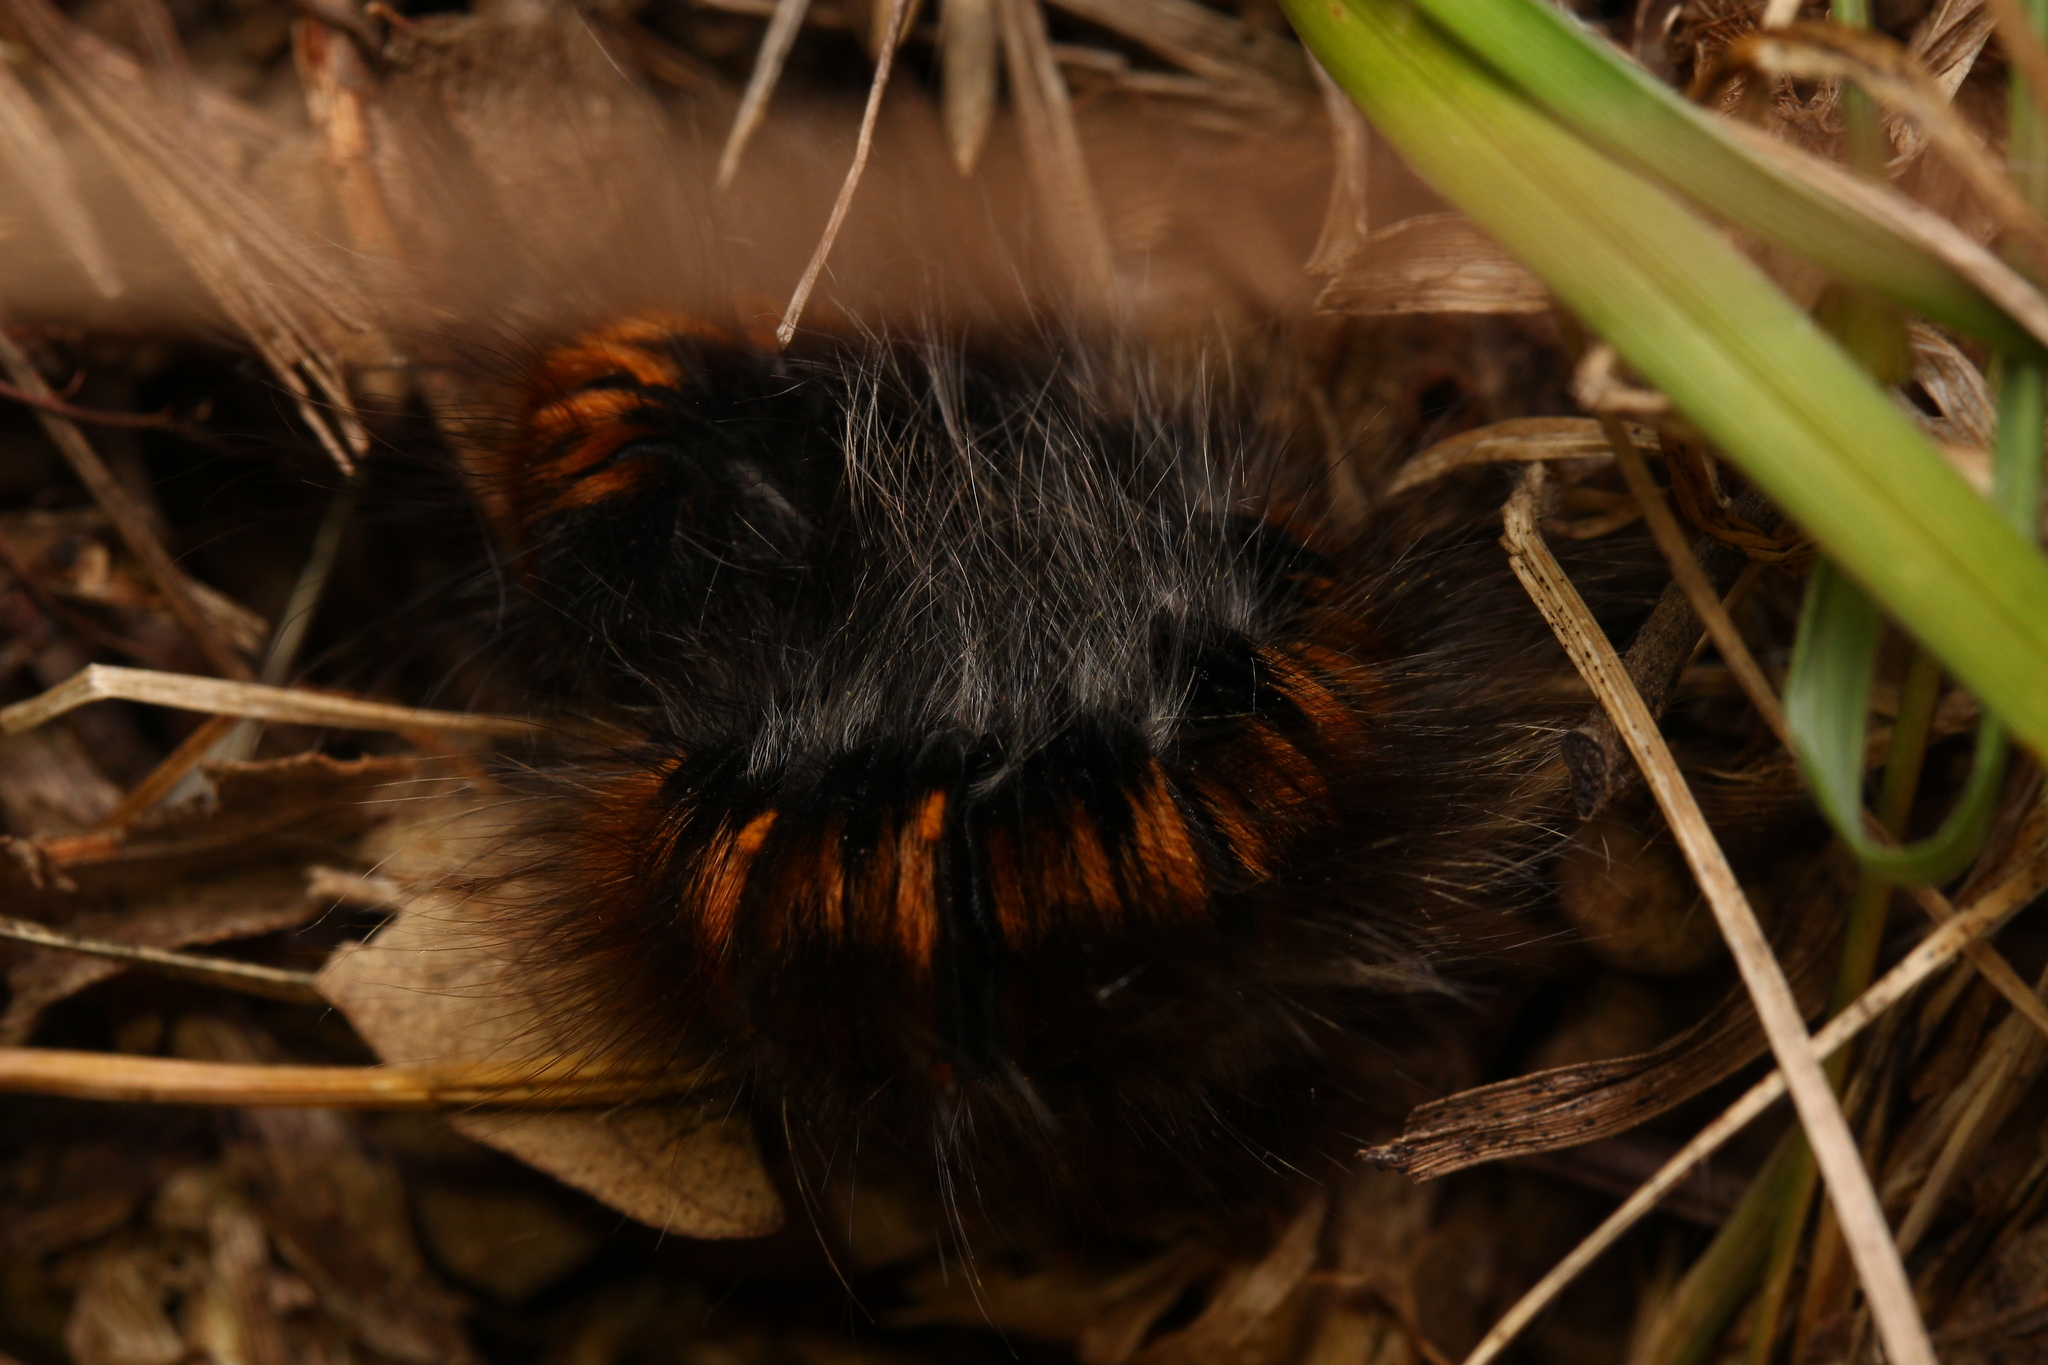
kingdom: Animalia
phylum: Arthropoda
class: Insecta
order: Lepidoptera
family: Lasiocampidae
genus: Macrothylacia
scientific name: Macrothylacia rubi
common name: Fox moth
